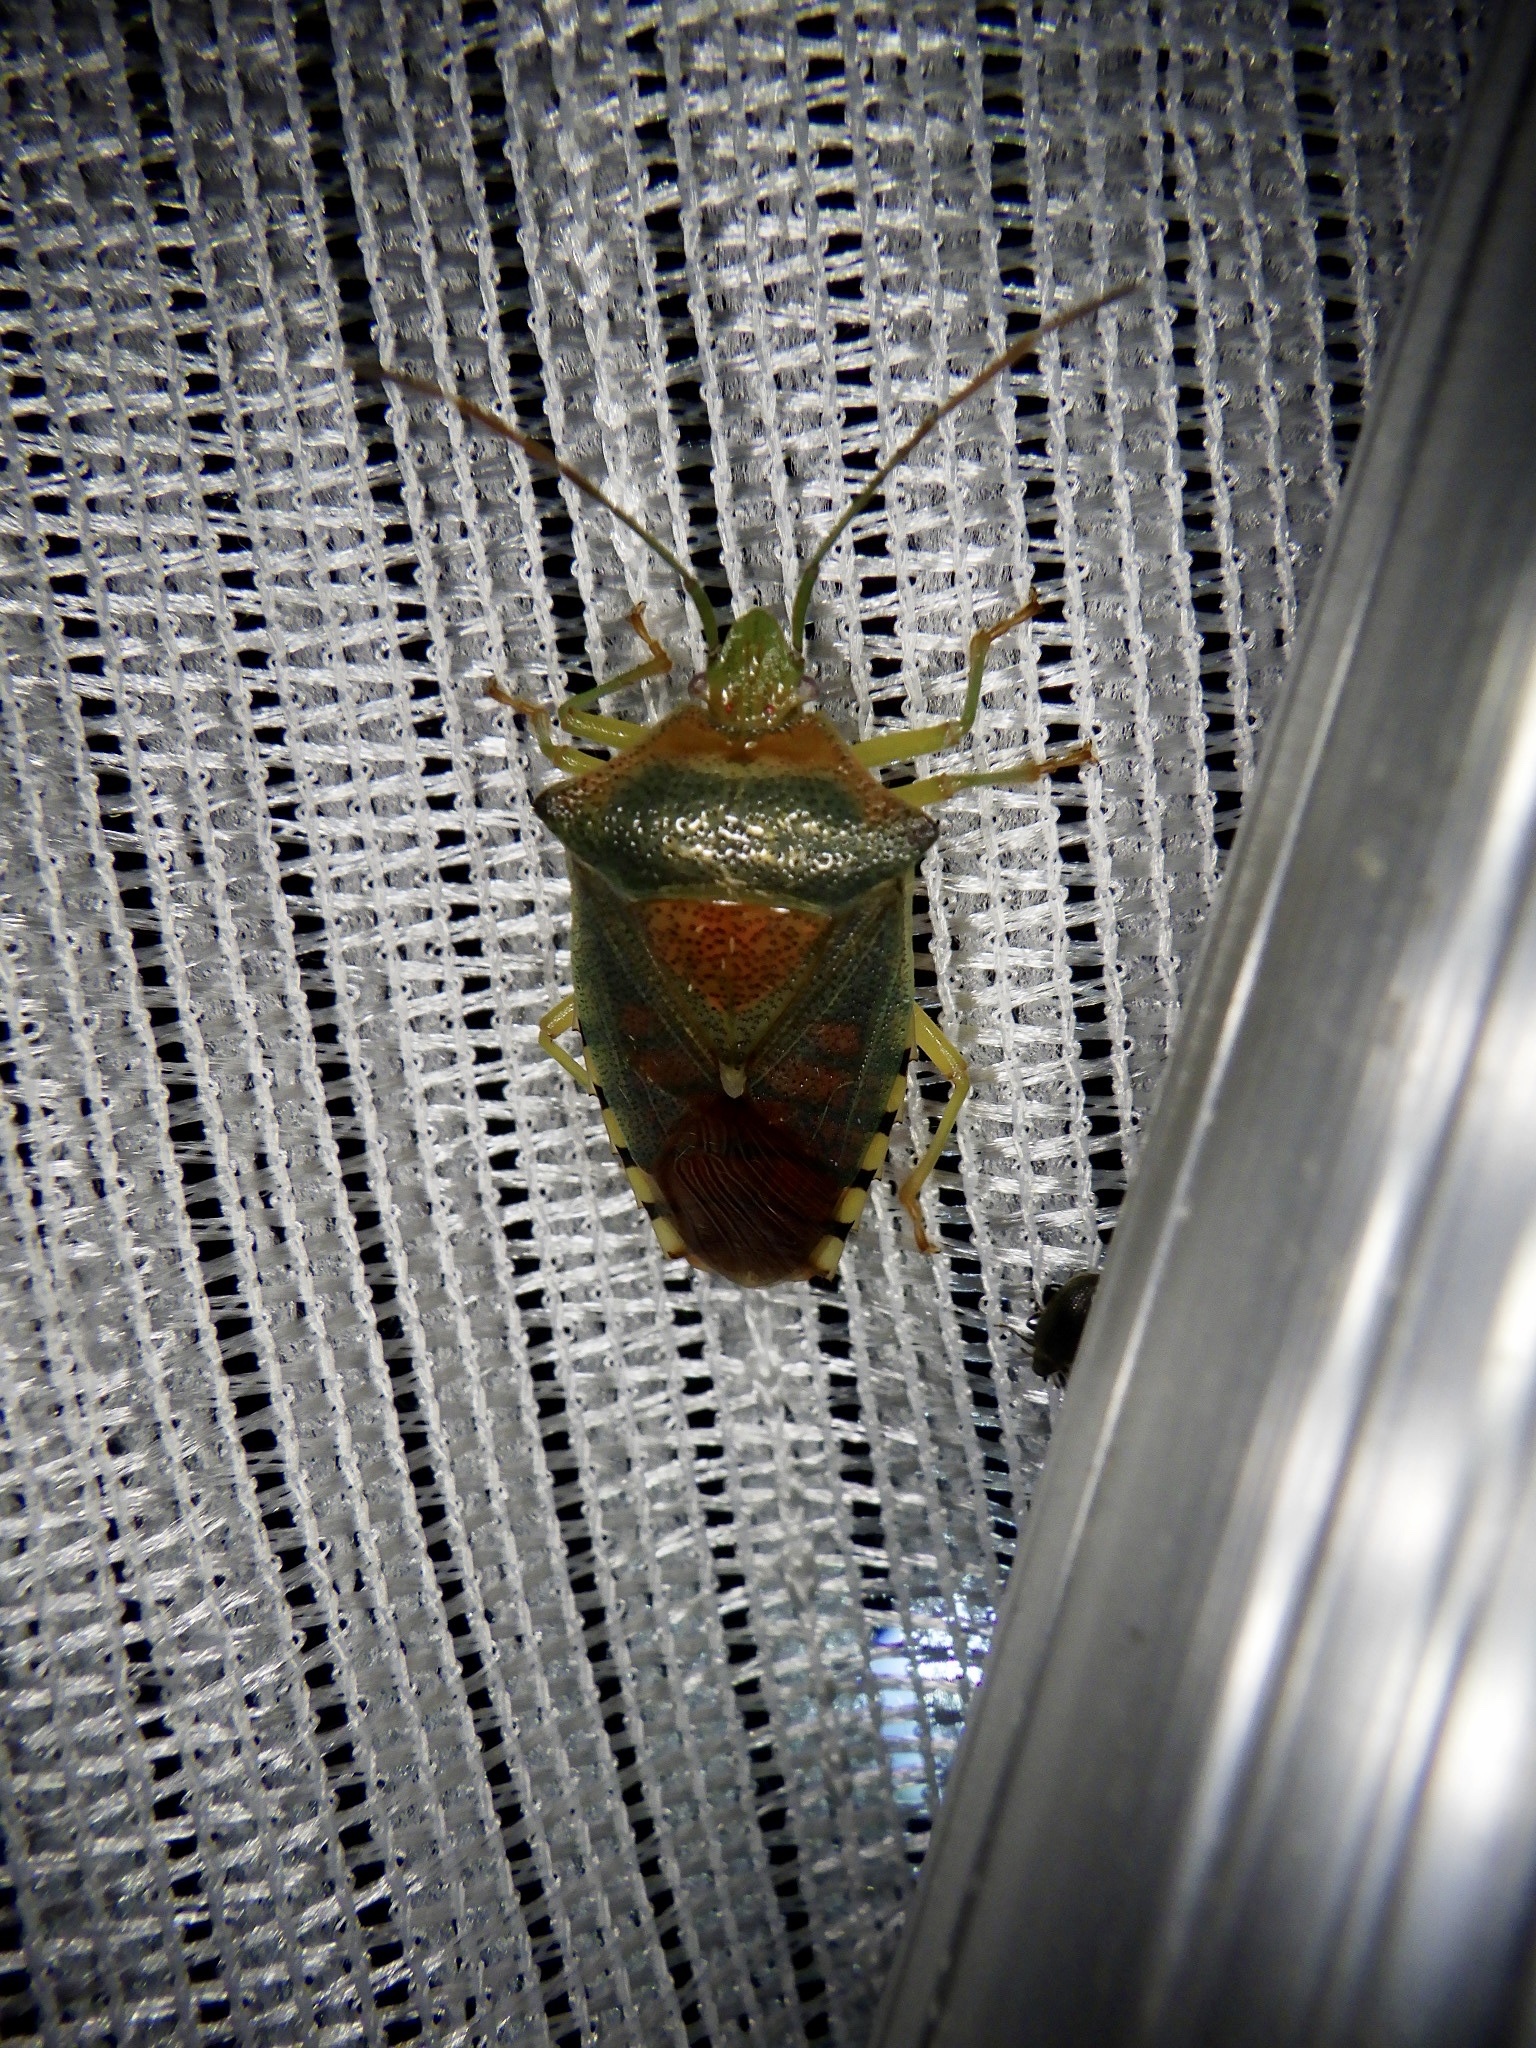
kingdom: Animalia
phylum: Arthropoda
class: Insecta
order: Hemiptera
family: Acanthosomatidae
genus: Acanthosoma
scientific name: Acanthosoma denticaudum
